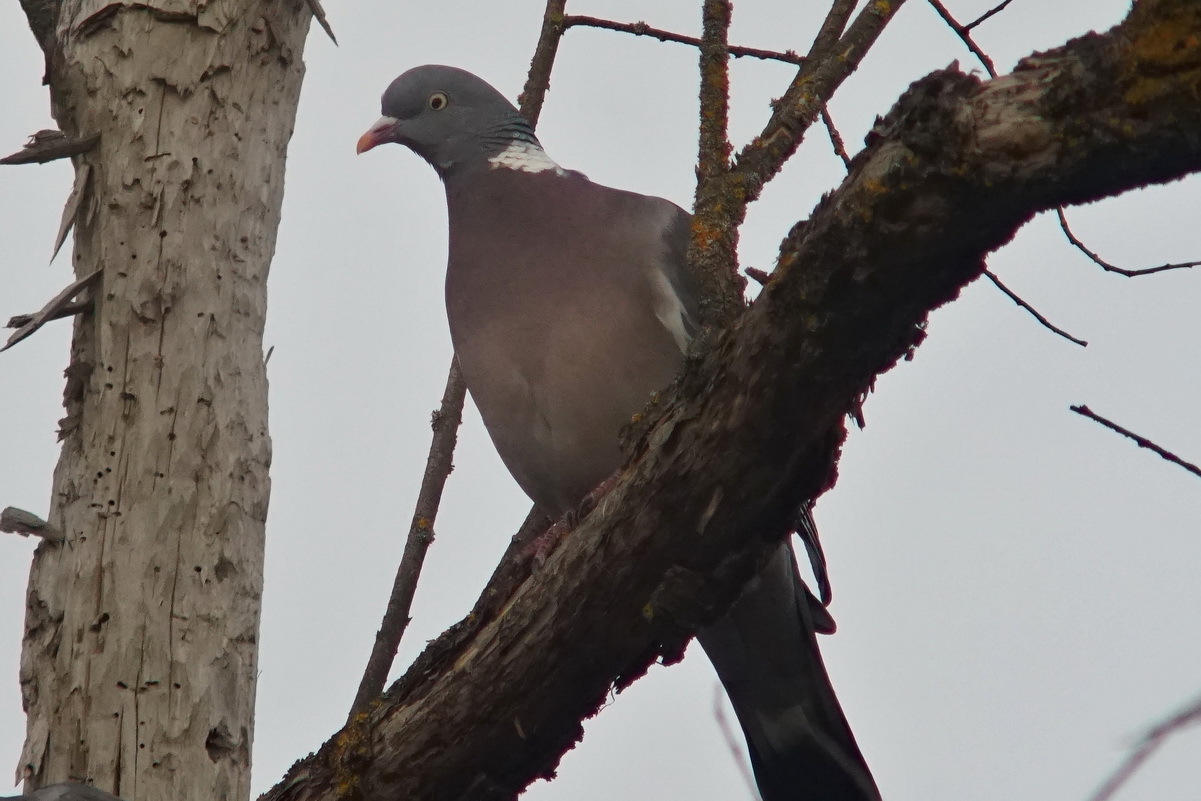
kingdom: Animalia
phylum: Chordata
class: Aves
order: Columbiformes
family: Columbidae
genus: Columba
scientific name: Columba palumbus
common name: Common wood pigeon
